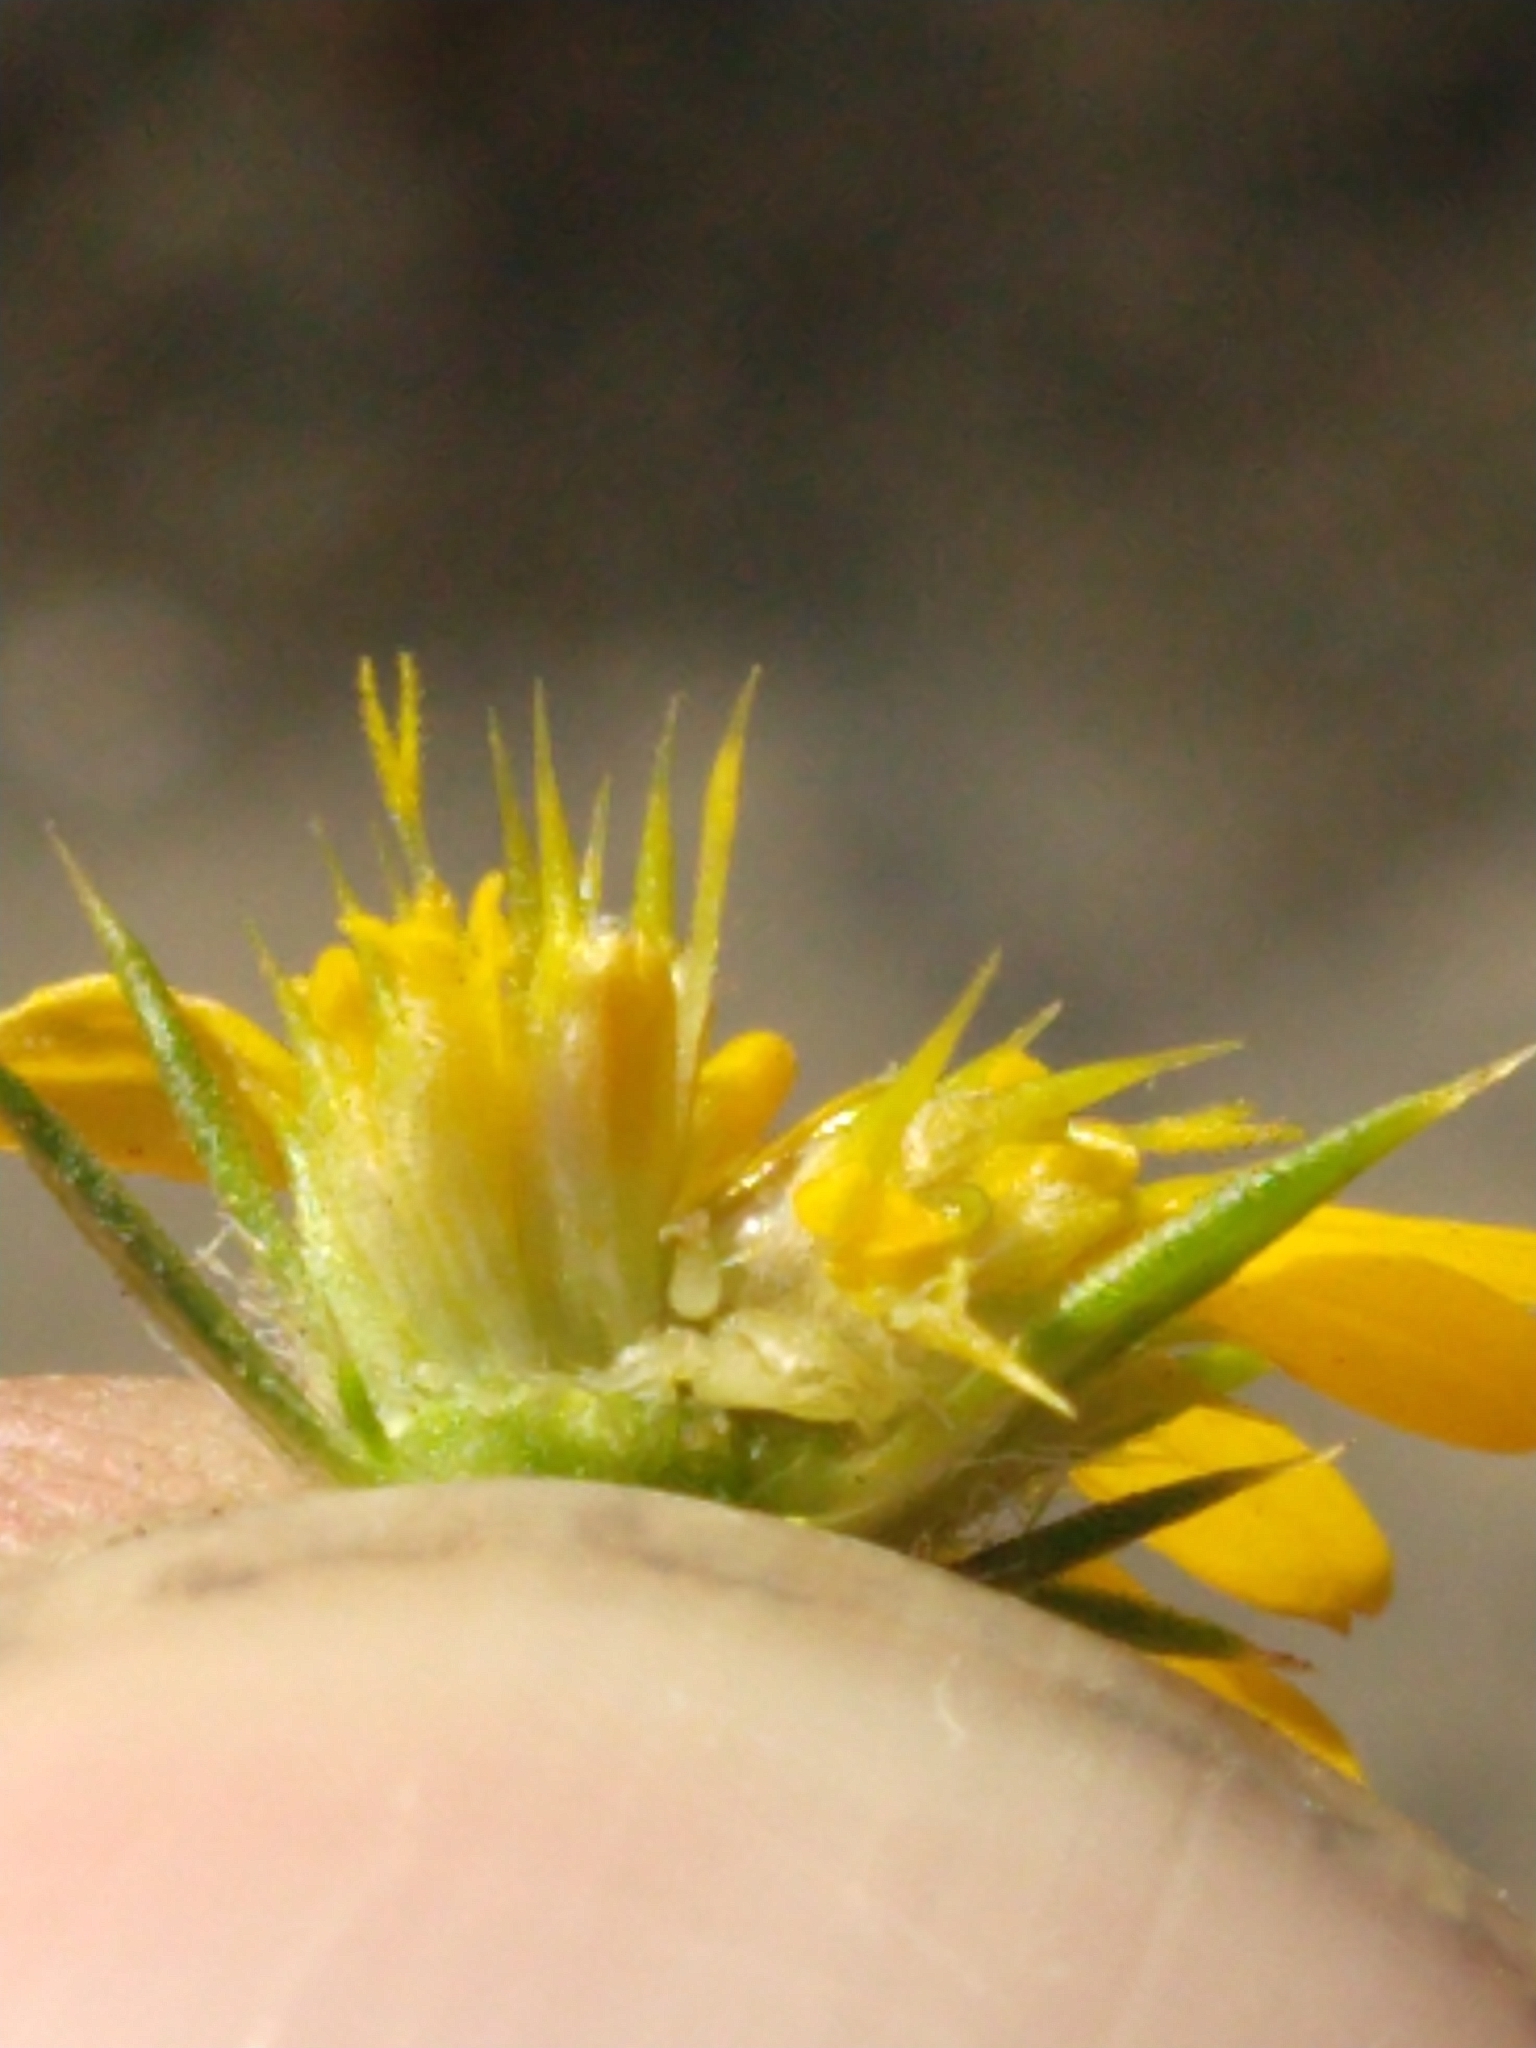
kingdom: Plantae
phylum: Tracheophyta
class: Magnoliopsida
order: Asterales
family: Asteraceae
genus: Centromadia
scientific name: Centromadia pungens
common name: Common spikeweed
